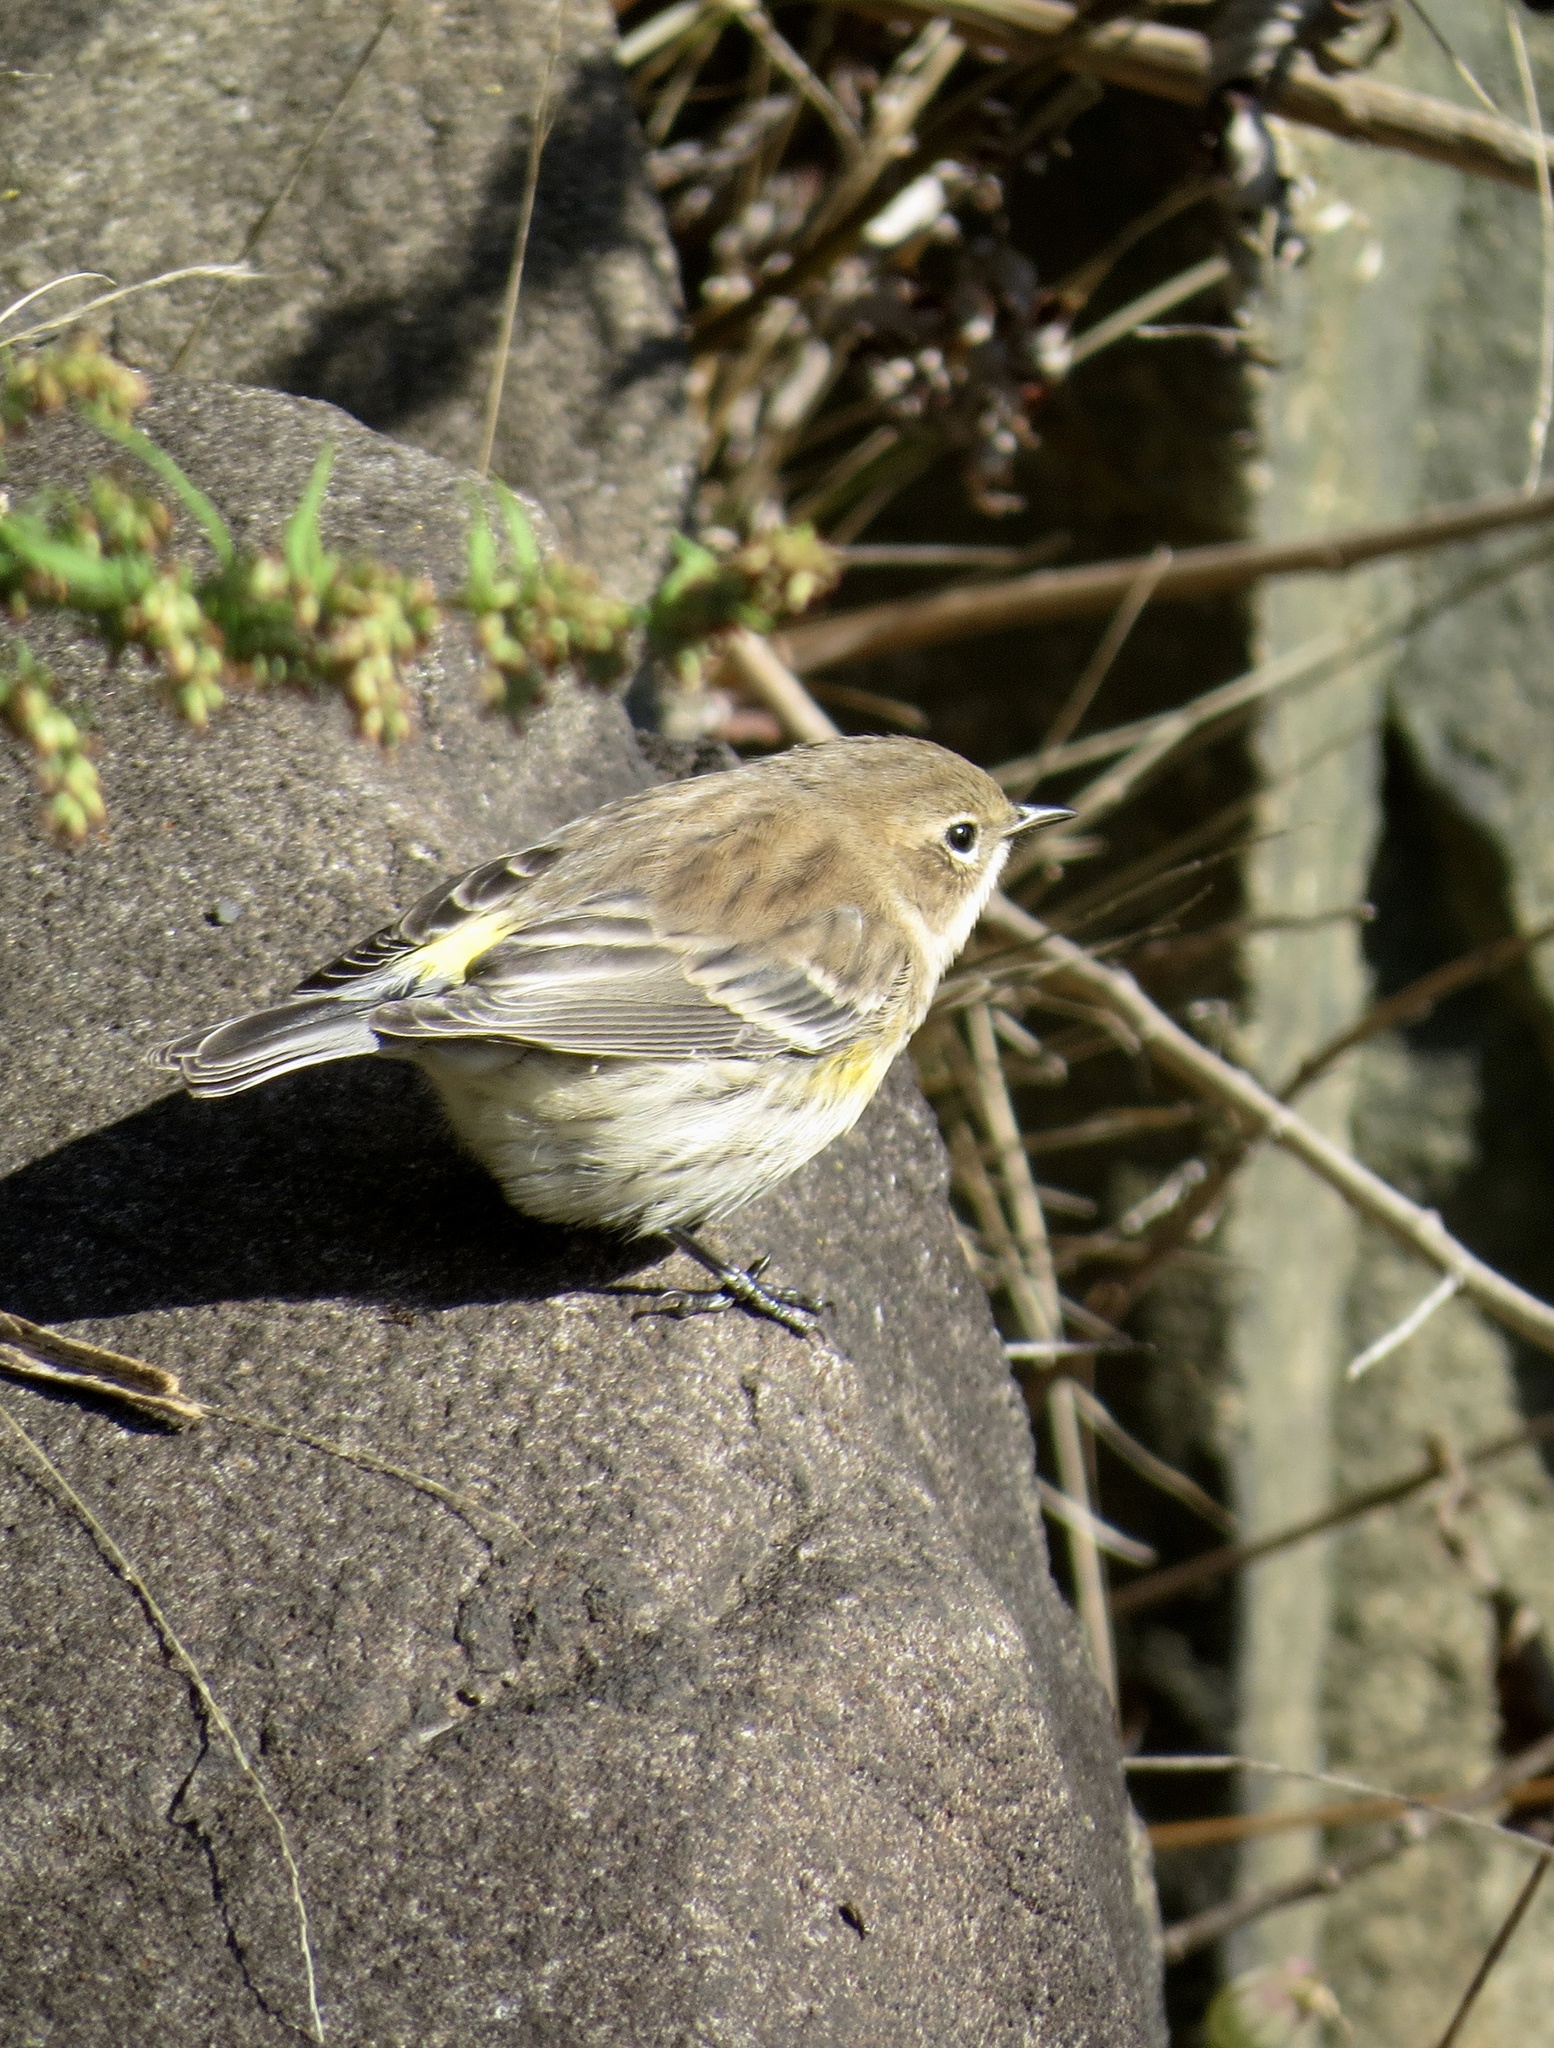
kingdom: Animalia
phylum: Chordata
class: Aves
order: Passeriformes
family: Parulidae
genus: Setophaga
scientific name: Setophaga coronata
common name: Myrtle warbler
